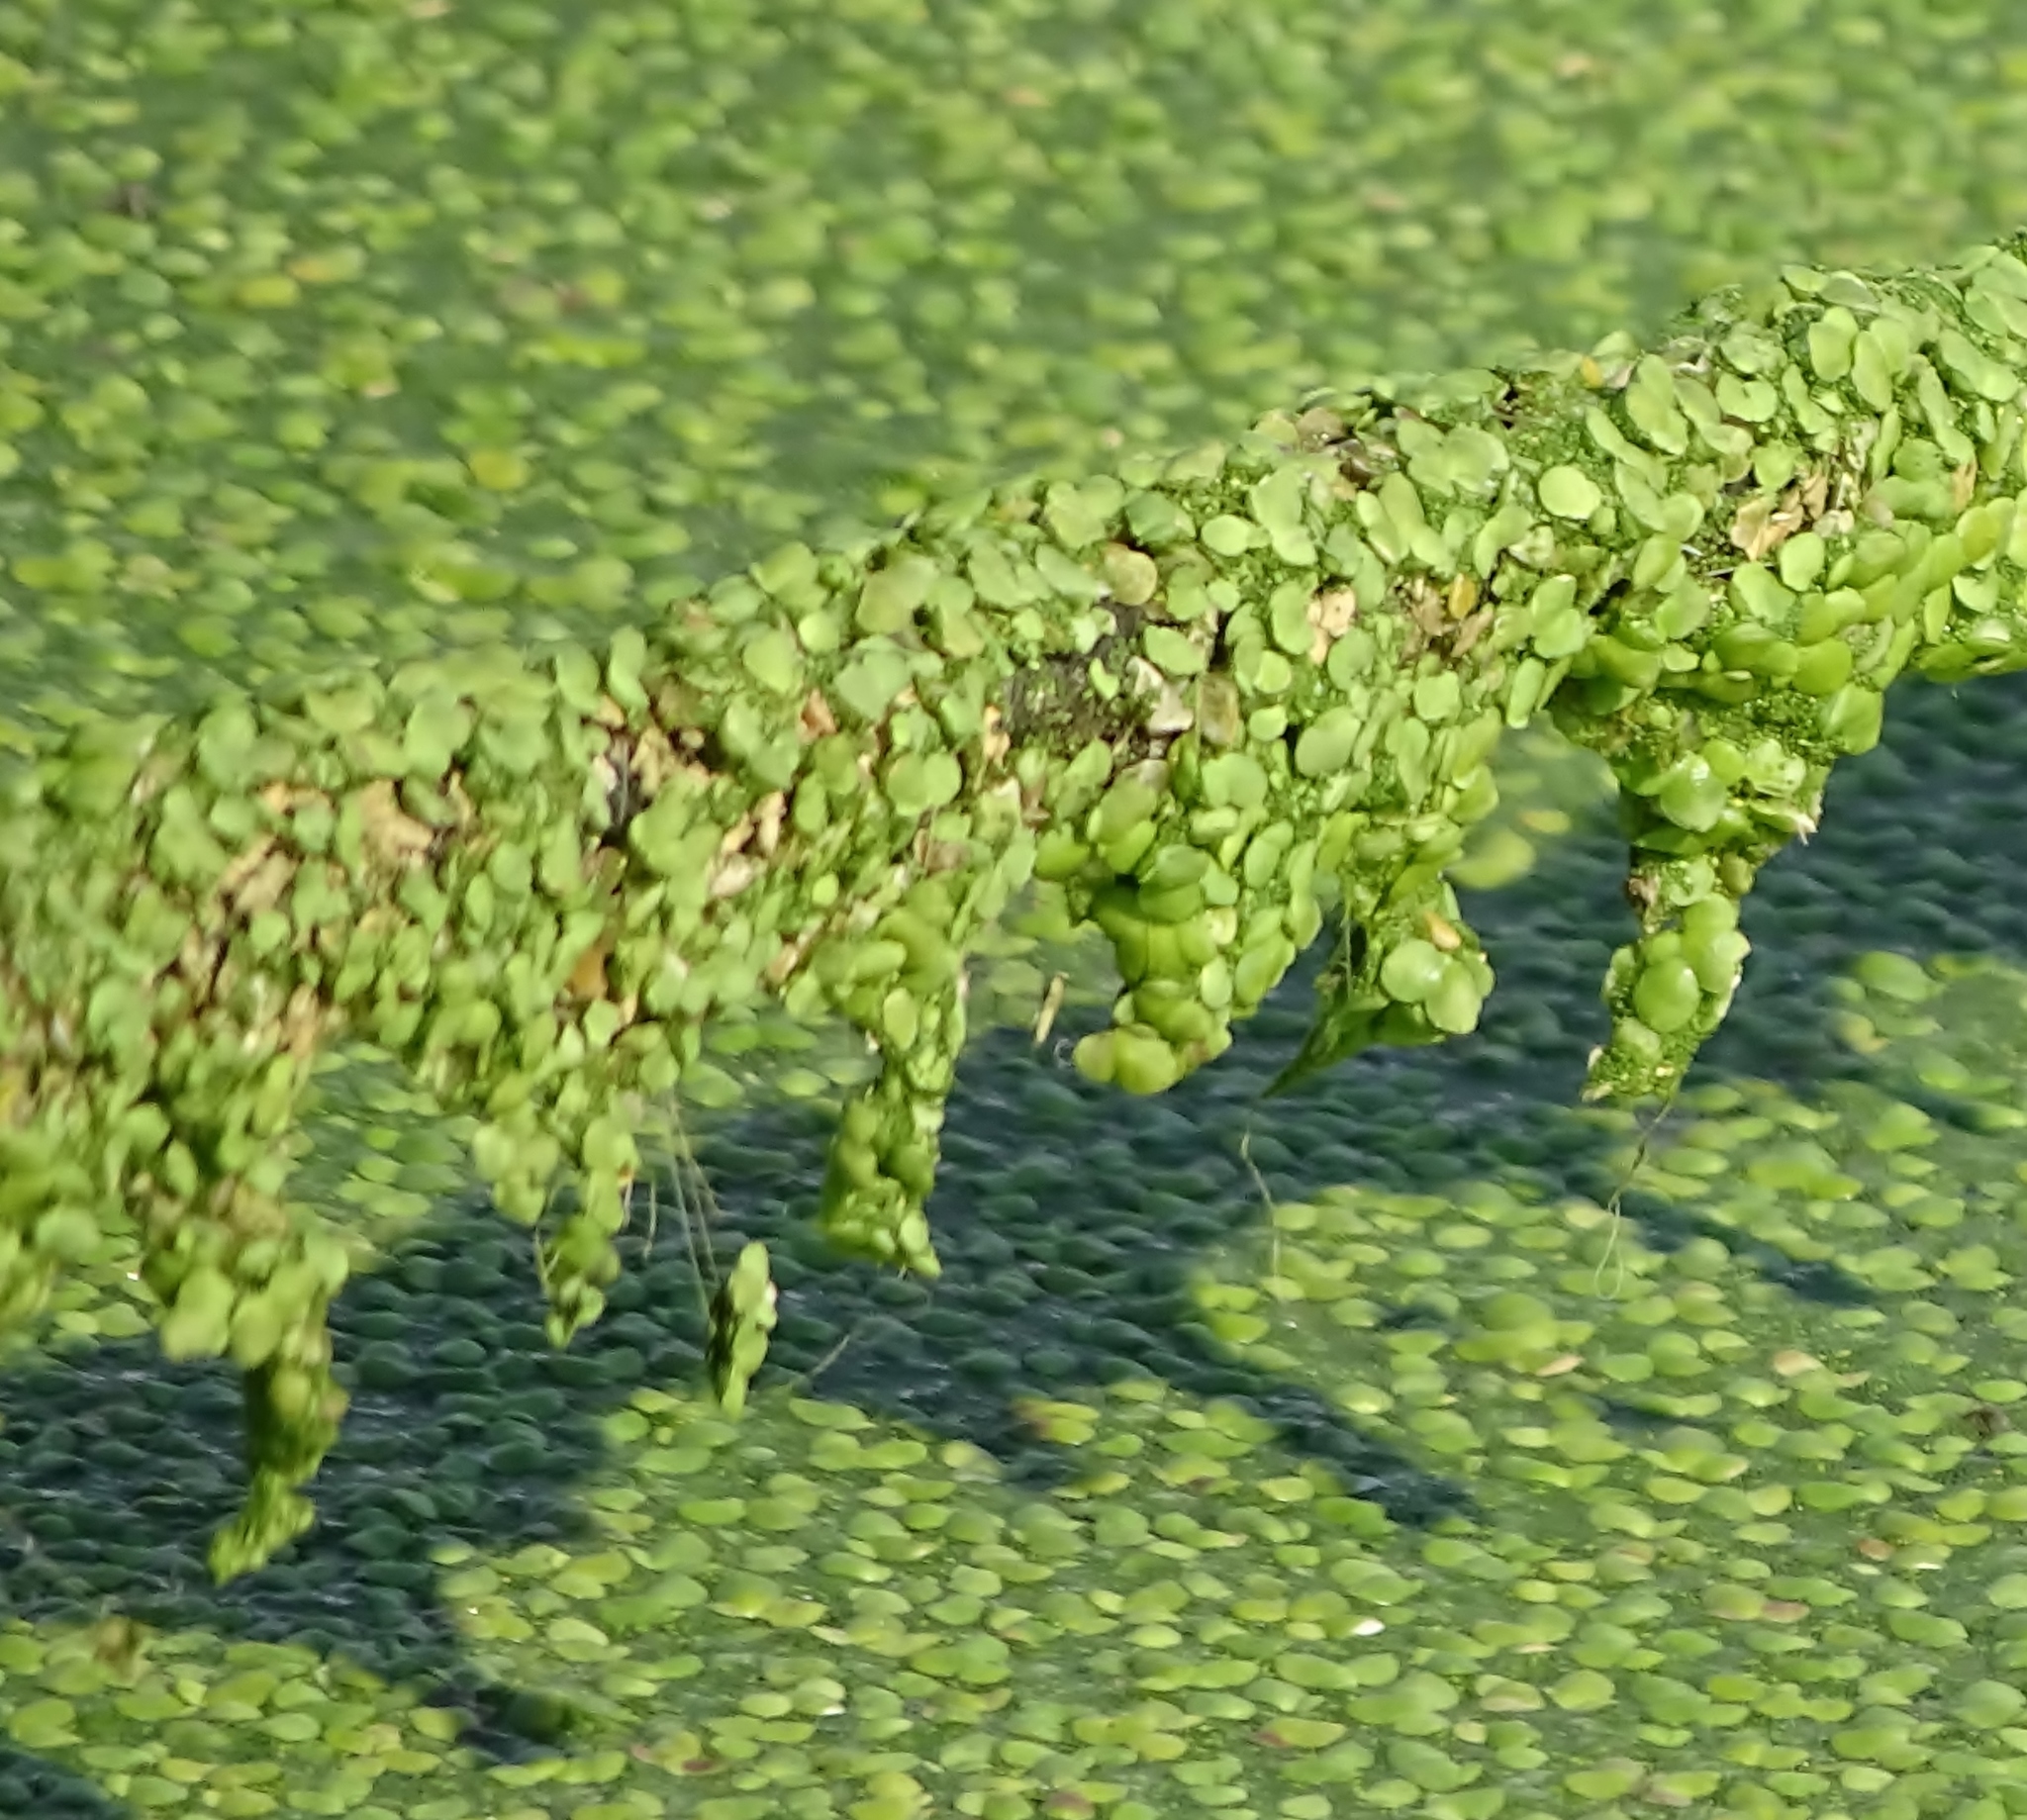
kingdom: Plantae
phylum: Tracheophyta
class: Liliopsida
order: Alismatales
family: Araceae
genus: Lemna
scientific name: Lemna minor
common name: Common duckweed
